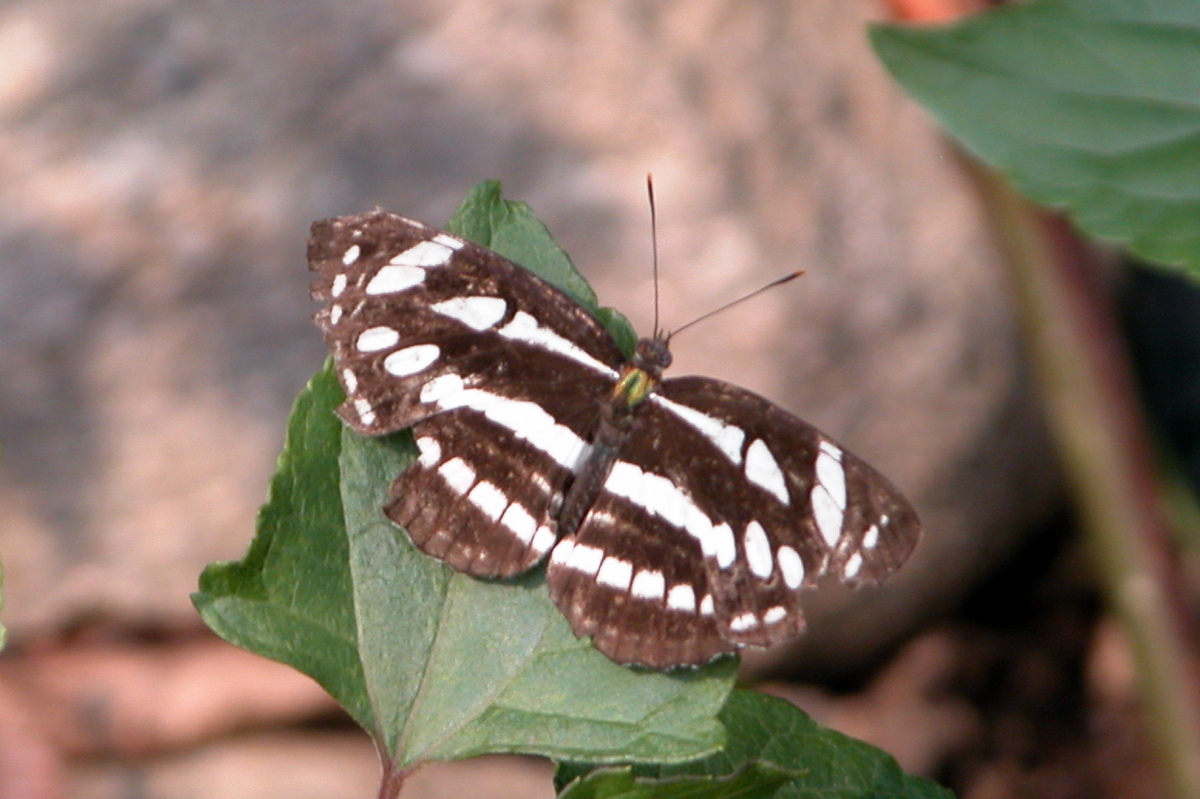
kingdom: Animalia
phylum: Arthropoda
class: Insecta
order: Lepidoptera
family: Nymphalidae
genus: Neptis
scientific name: Neptis hylas
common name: Common sailer
